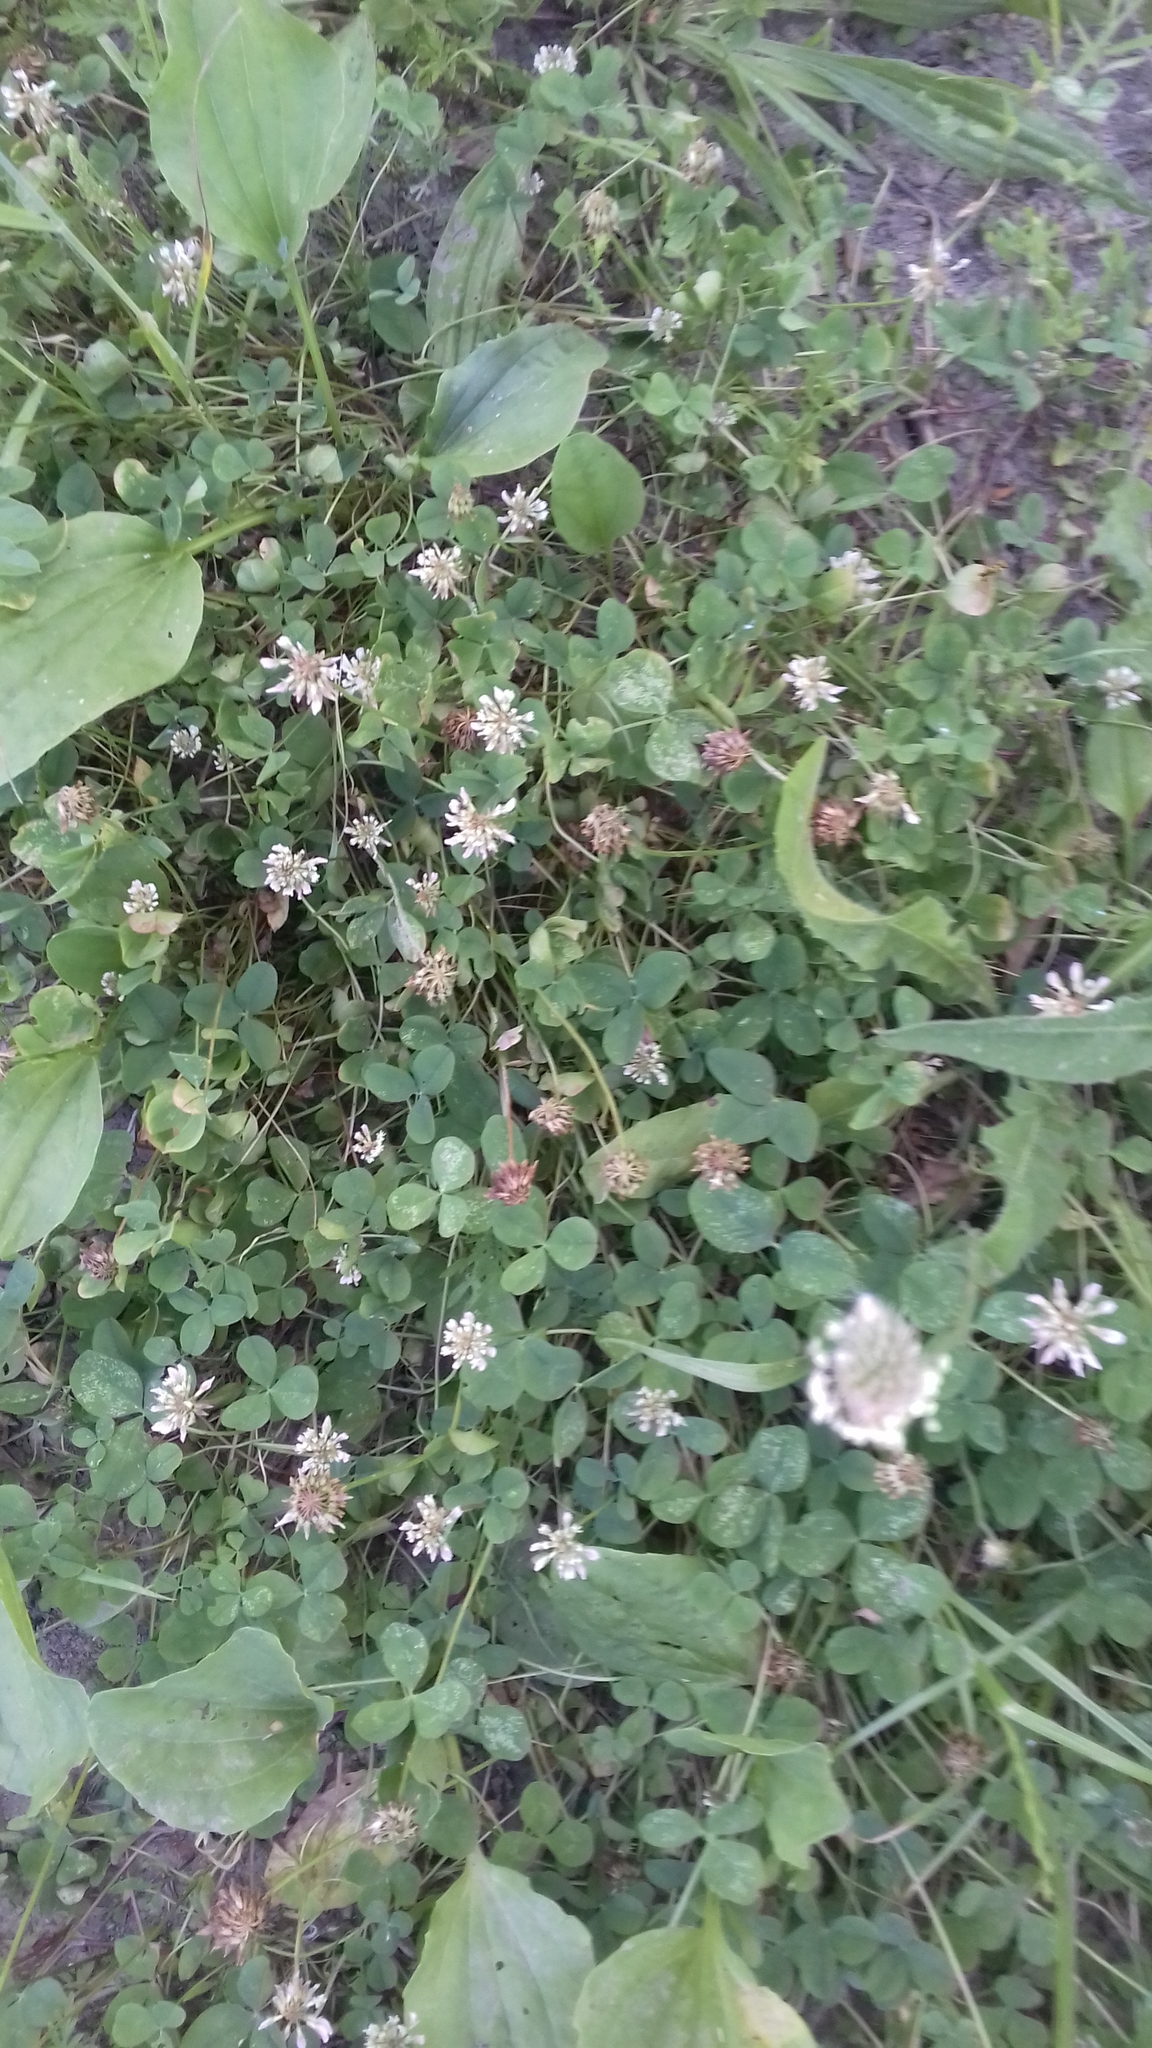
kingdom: Plantae
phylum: Tracheophyta
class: Magnoliopsida
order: Fabales
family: Fabaceae
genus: Trifolium
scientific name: Trifolium repens
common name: White clover
